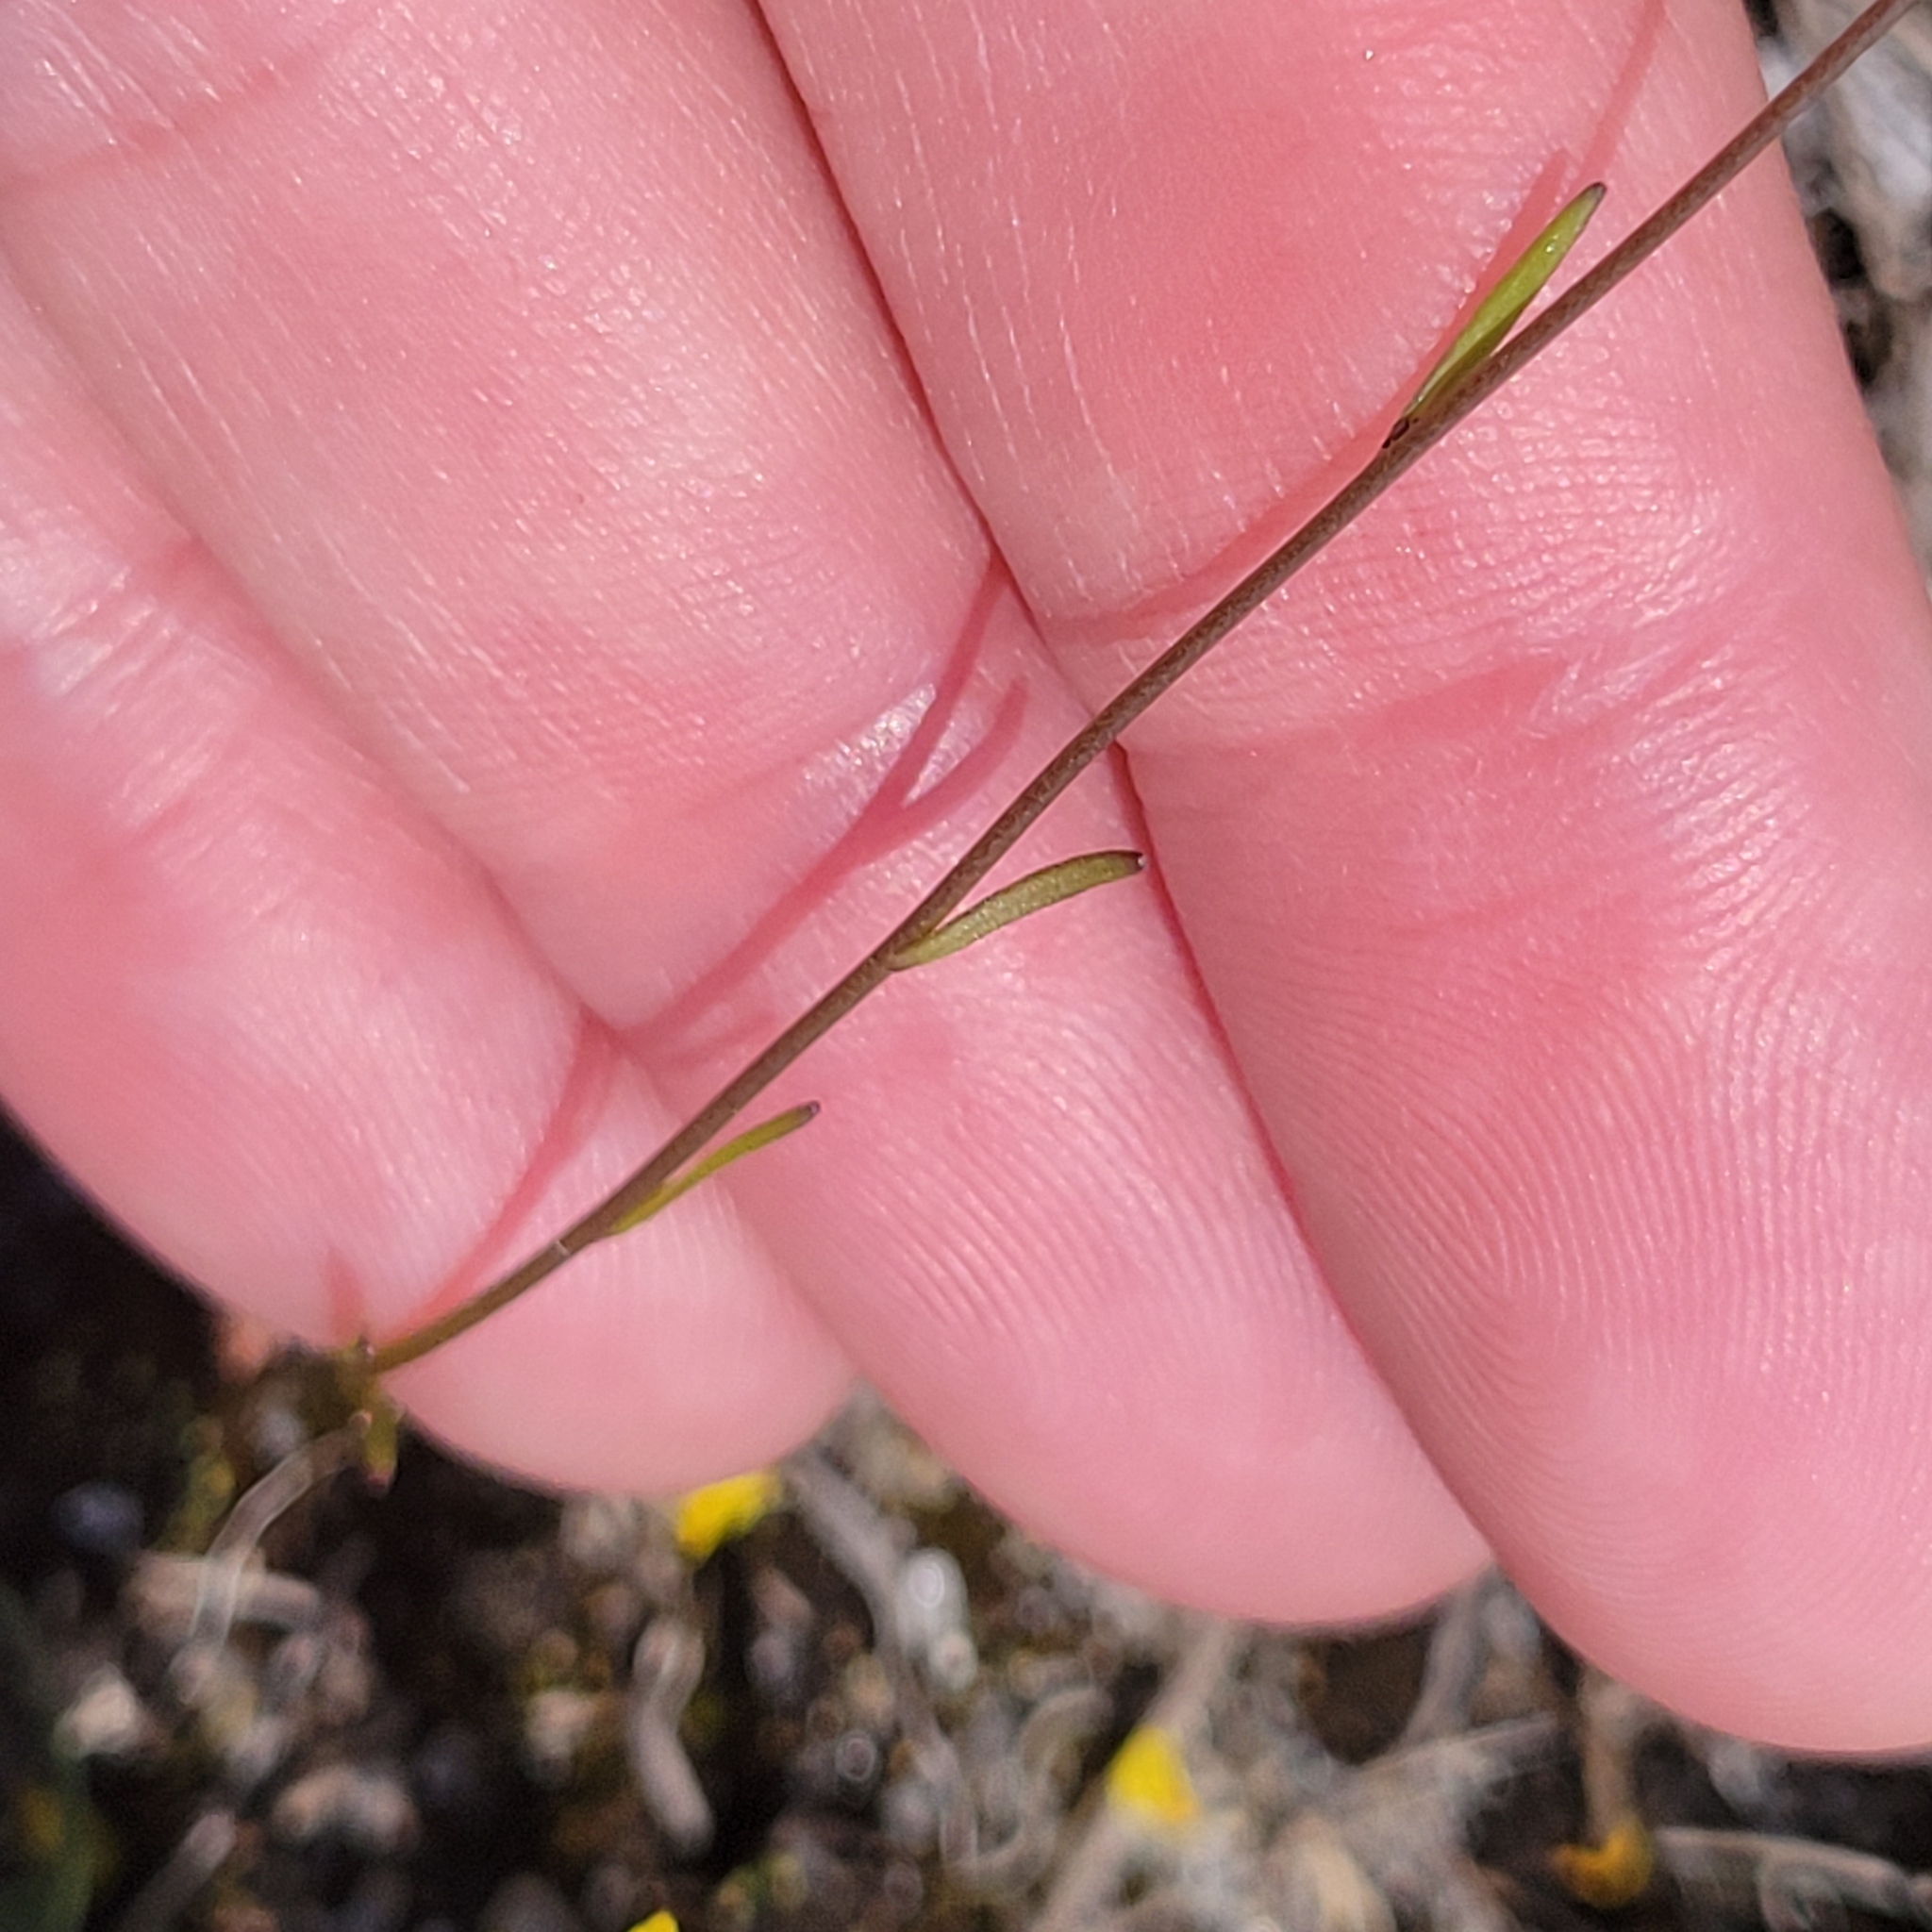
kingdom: Plantae
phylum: Tracheophyta
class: Magnoliopsida
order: Lamiales
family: Plantaginaceae
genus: Nuttallanthus
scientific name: Nuttallanthus canadensis
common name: Blue toadflax
